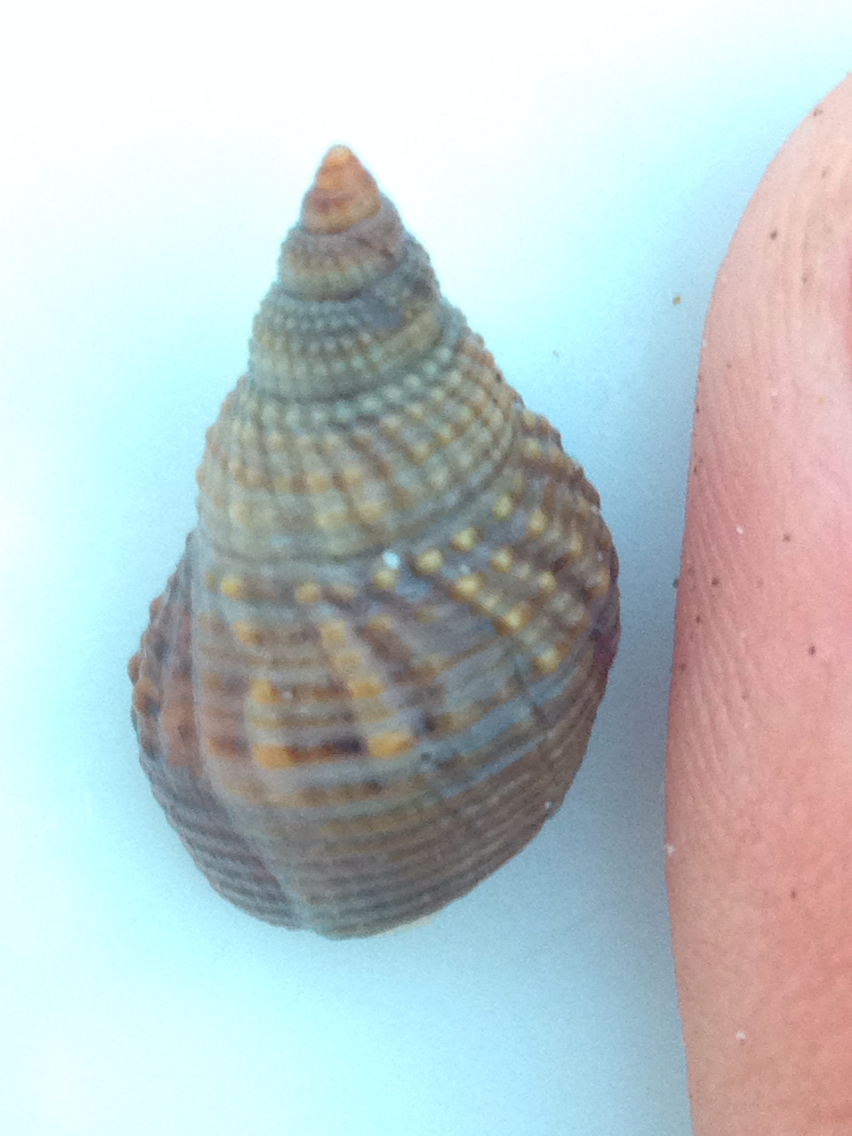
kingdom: Animalia
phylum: Mollusca
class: Gastropoda
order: Neogastropoda
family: Nassariidae
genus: Caesia
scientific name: Caesia fossata
